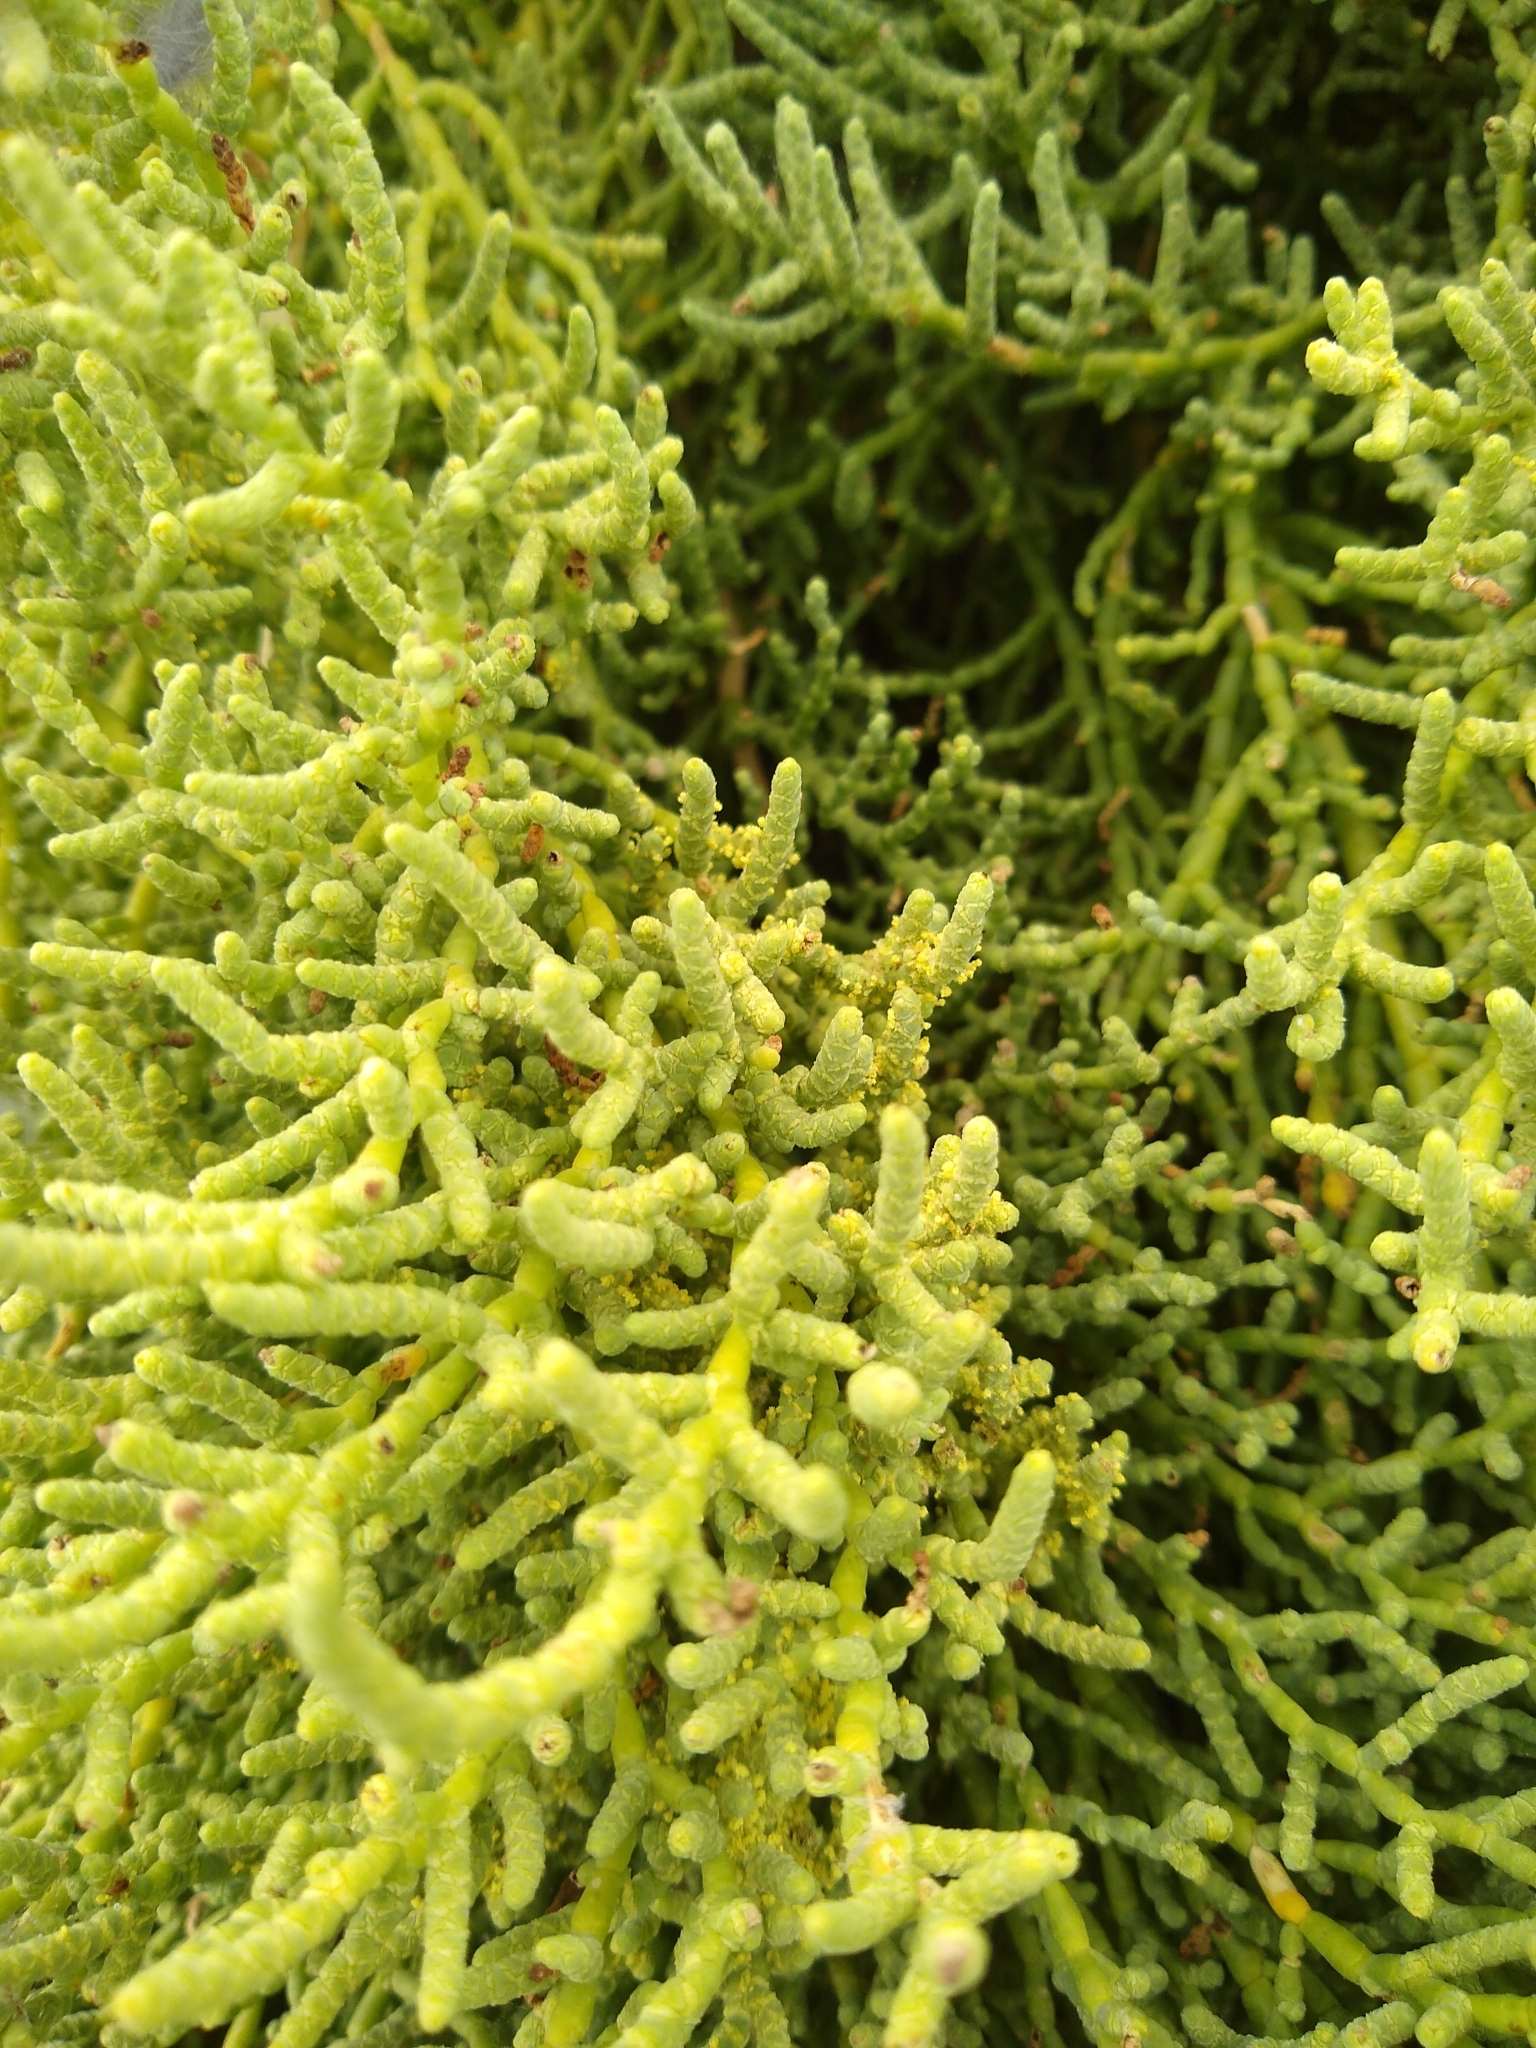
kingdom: Plantae
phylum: Tracheophyta
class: Magnoliopsida
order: Caryophyllales
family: Amaranthaceae
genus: Allenrolfea
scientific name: Allenrolfea occidentalis
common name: Iodine-bush
